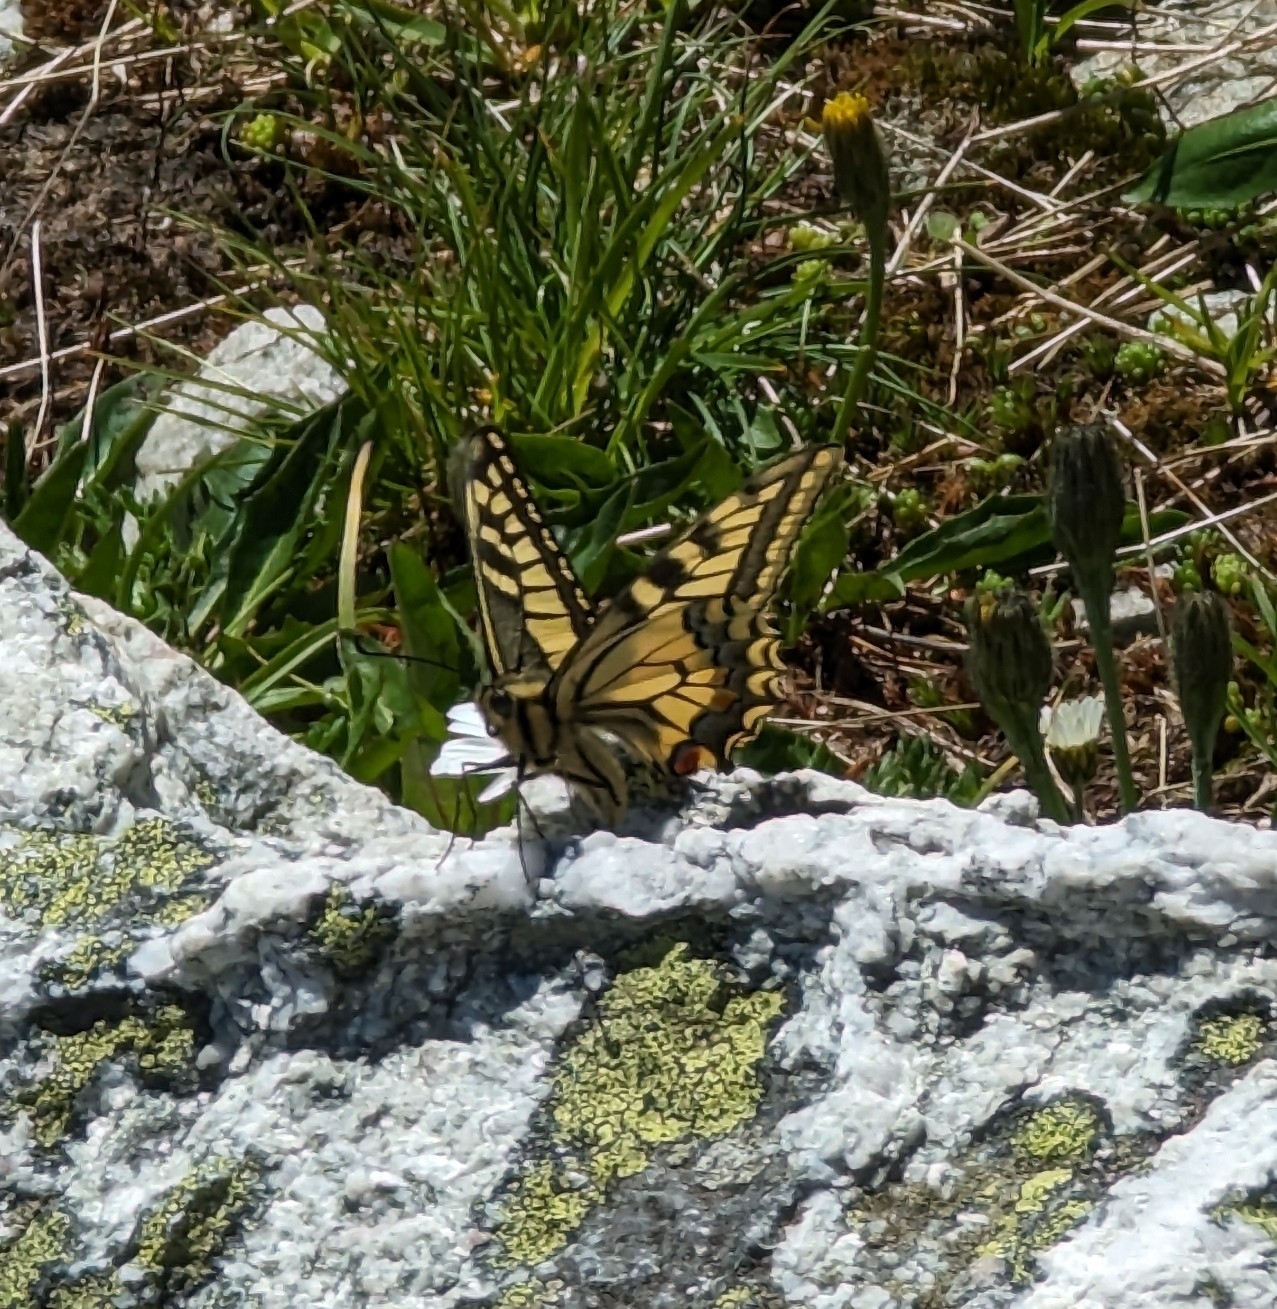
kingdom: Animalia
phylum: Arthropoda
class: Insecta
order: Lepidoptera
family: Papilionidae
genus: Papilio
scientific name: Papilio machaon
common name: Swallowtail
